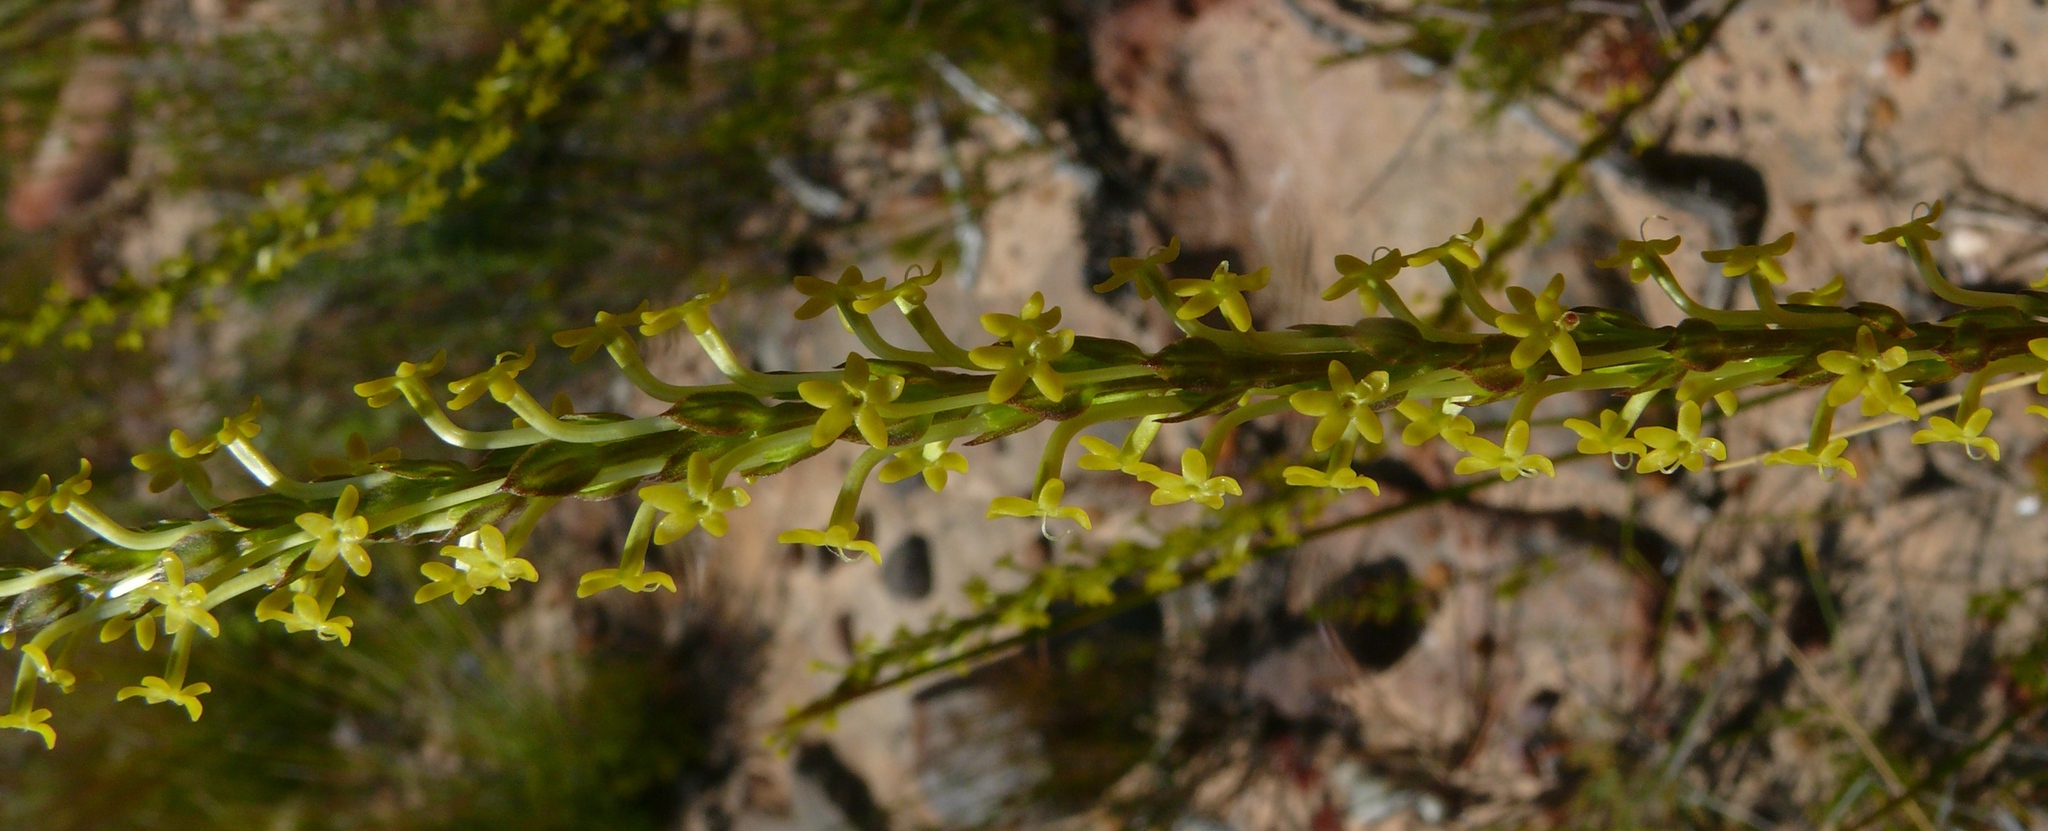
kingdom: Plantae
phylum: Tracheophyta
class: Magnoliopsida
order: Lamiales
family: Scrophulariaceae
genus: Microdon
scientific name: Microdon dubius
